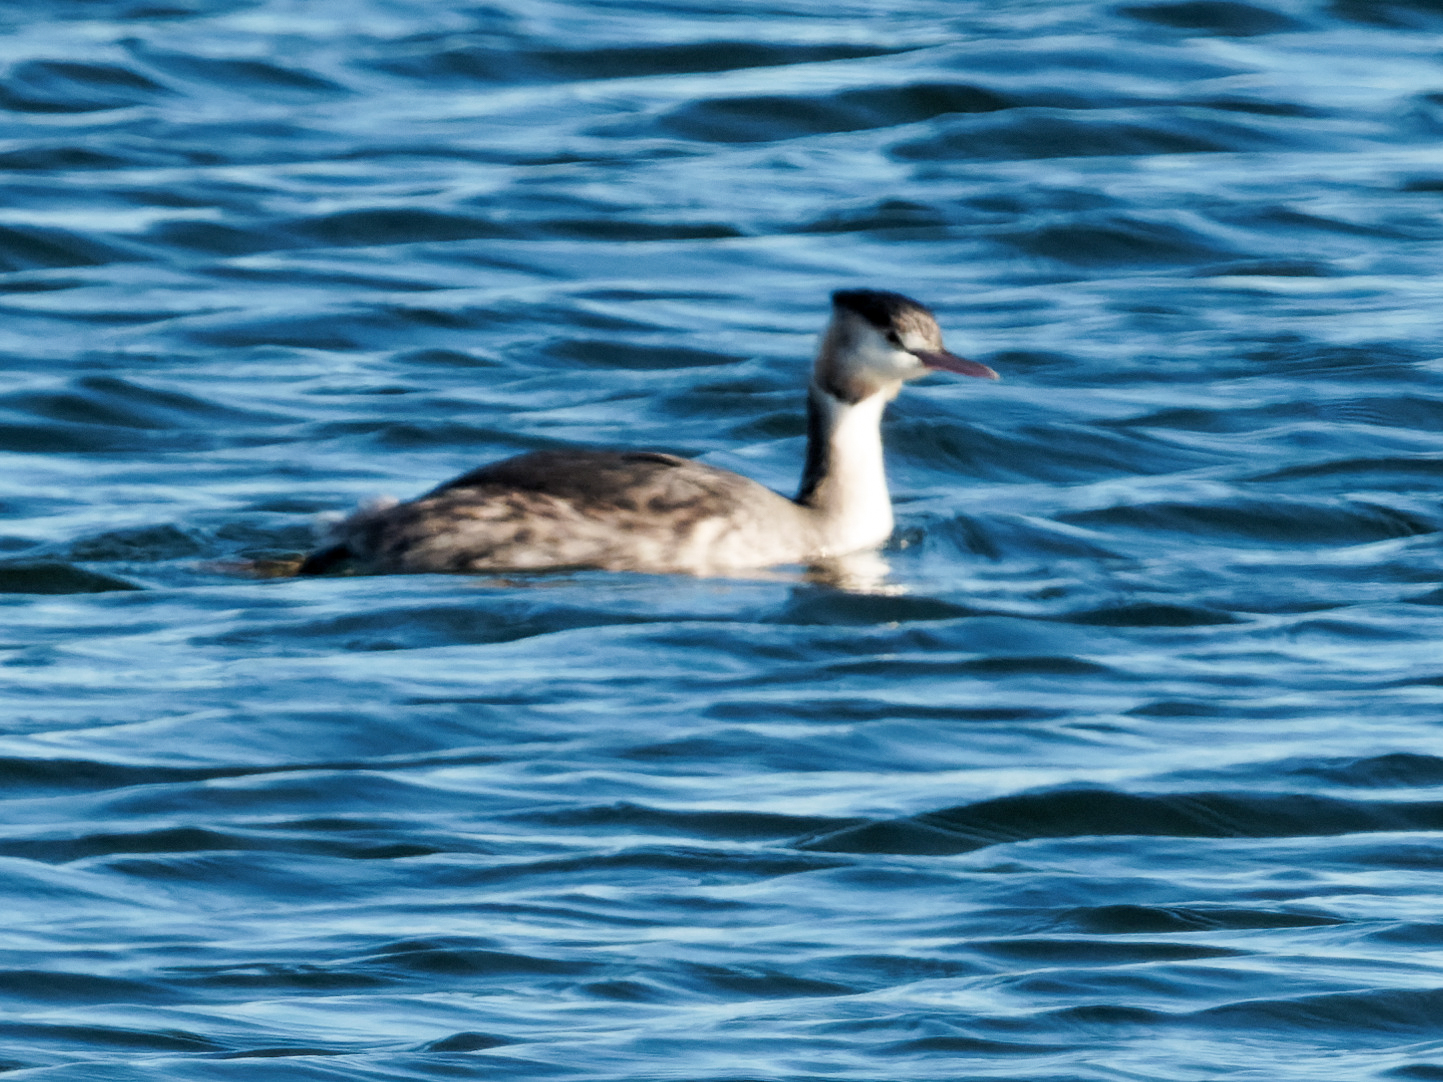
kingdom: Animalia
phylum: Chordata
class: Aves
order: Podicipediformes
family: Podicipedidae
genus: Podiceps
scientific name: Podiceps cristatus
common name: Great crested grebe
